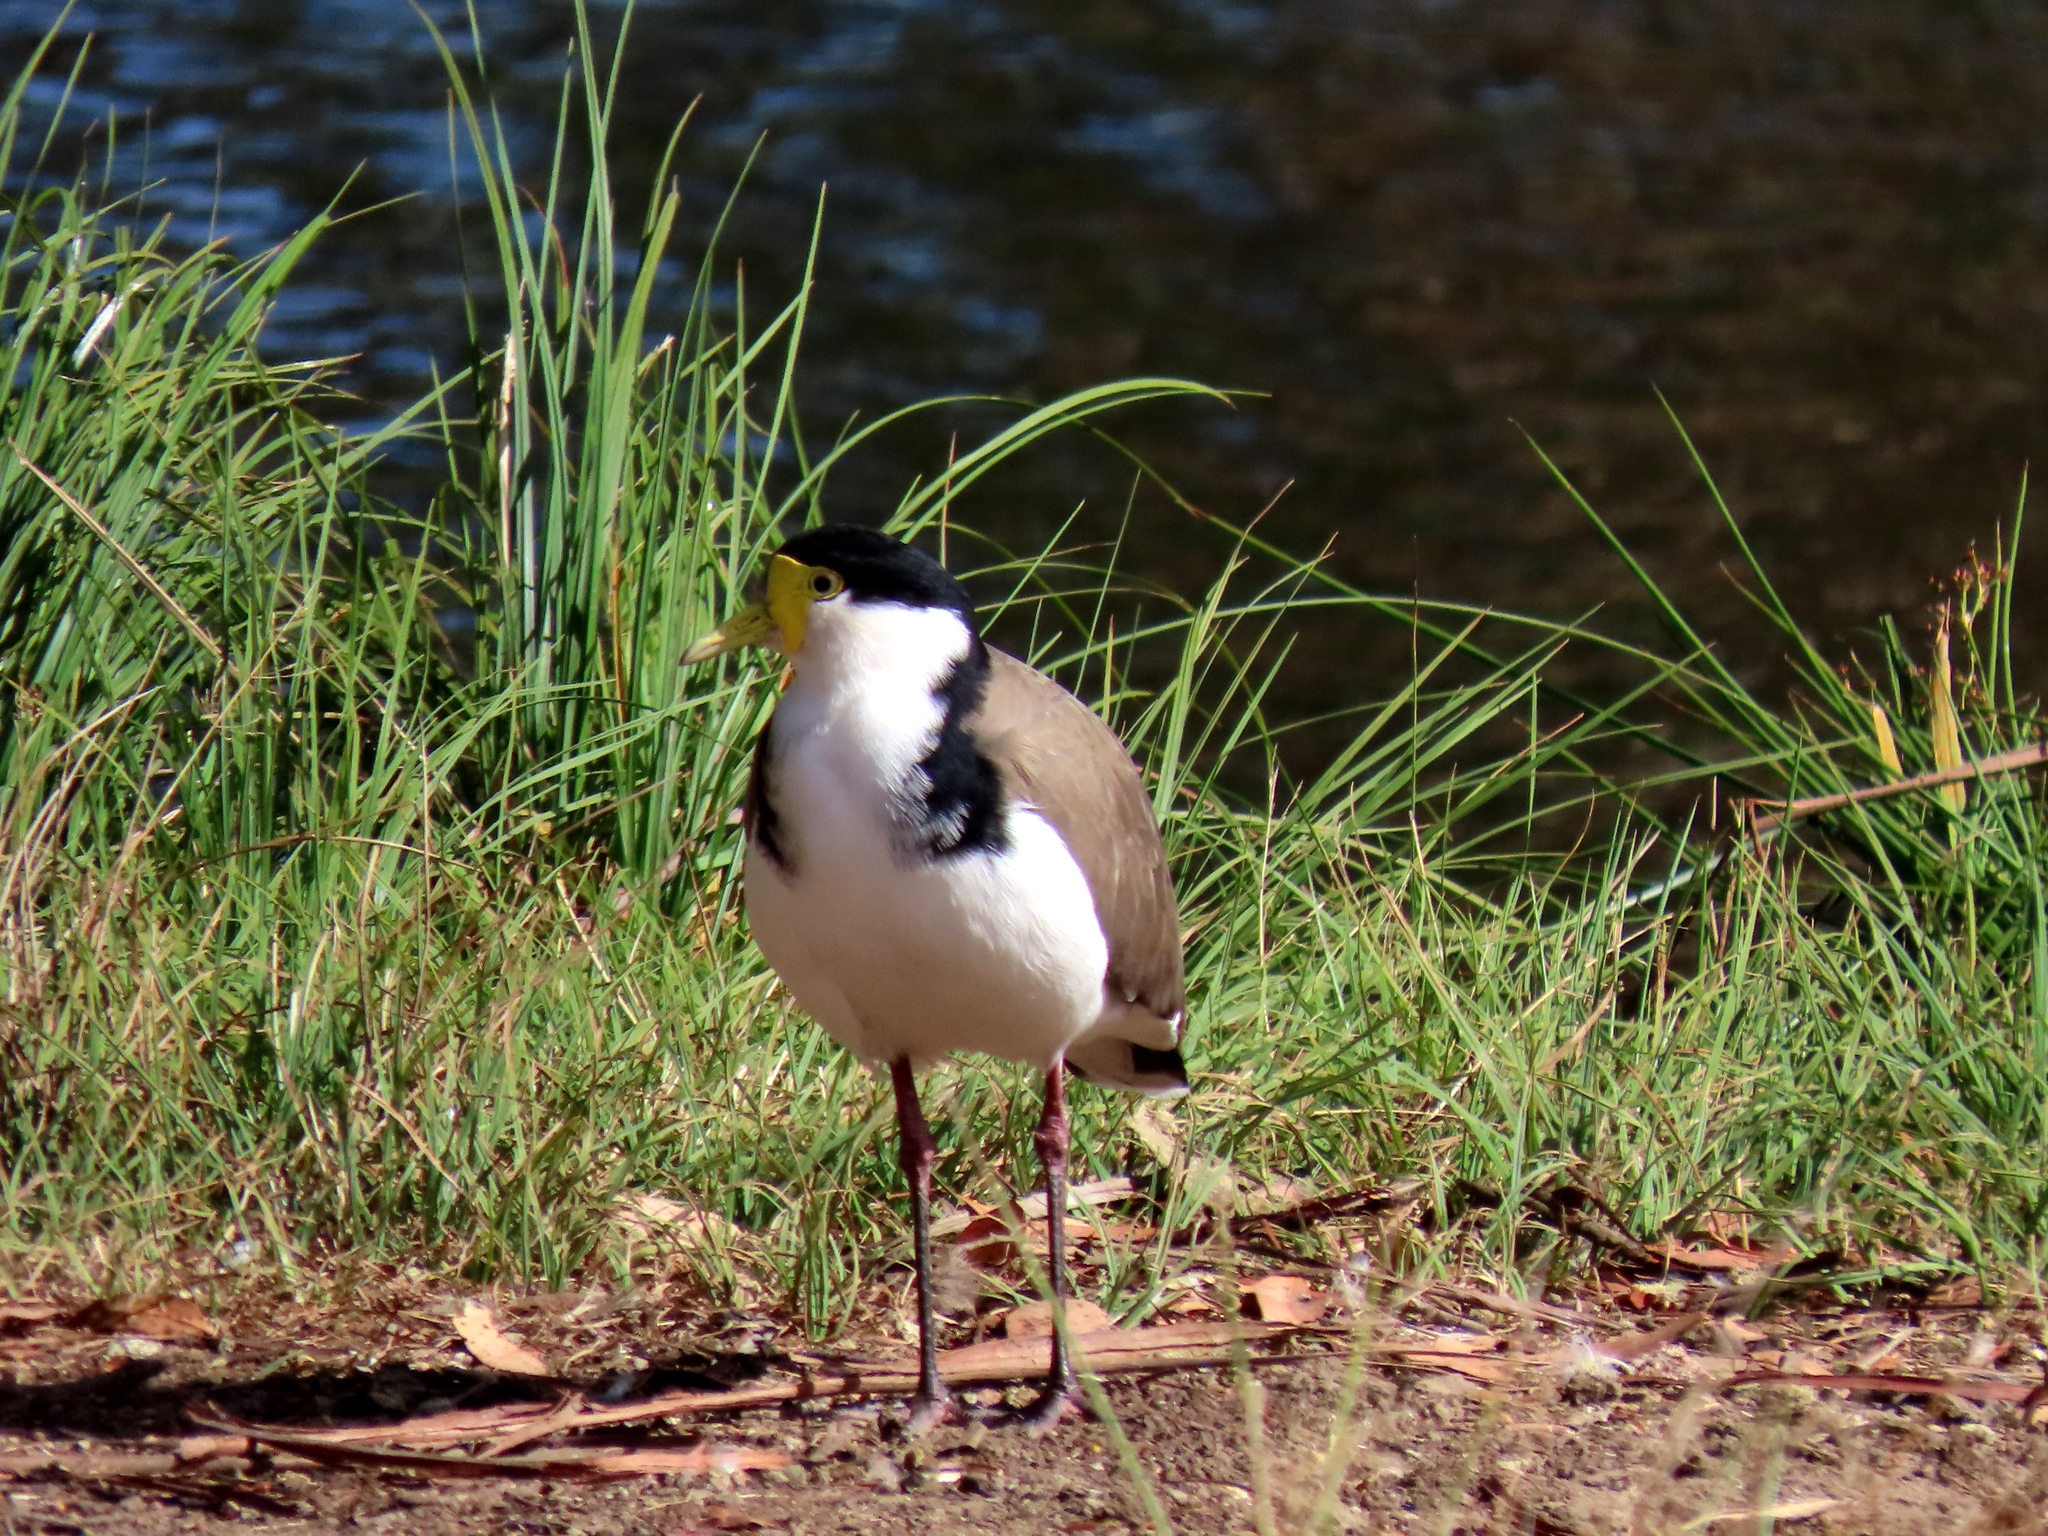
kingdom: Animalia
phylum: Chordata
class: Aves
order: Charadriiformes
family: Charadriidae
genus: Vanellus
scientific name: Vanellus miles
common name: Masked lapwing
